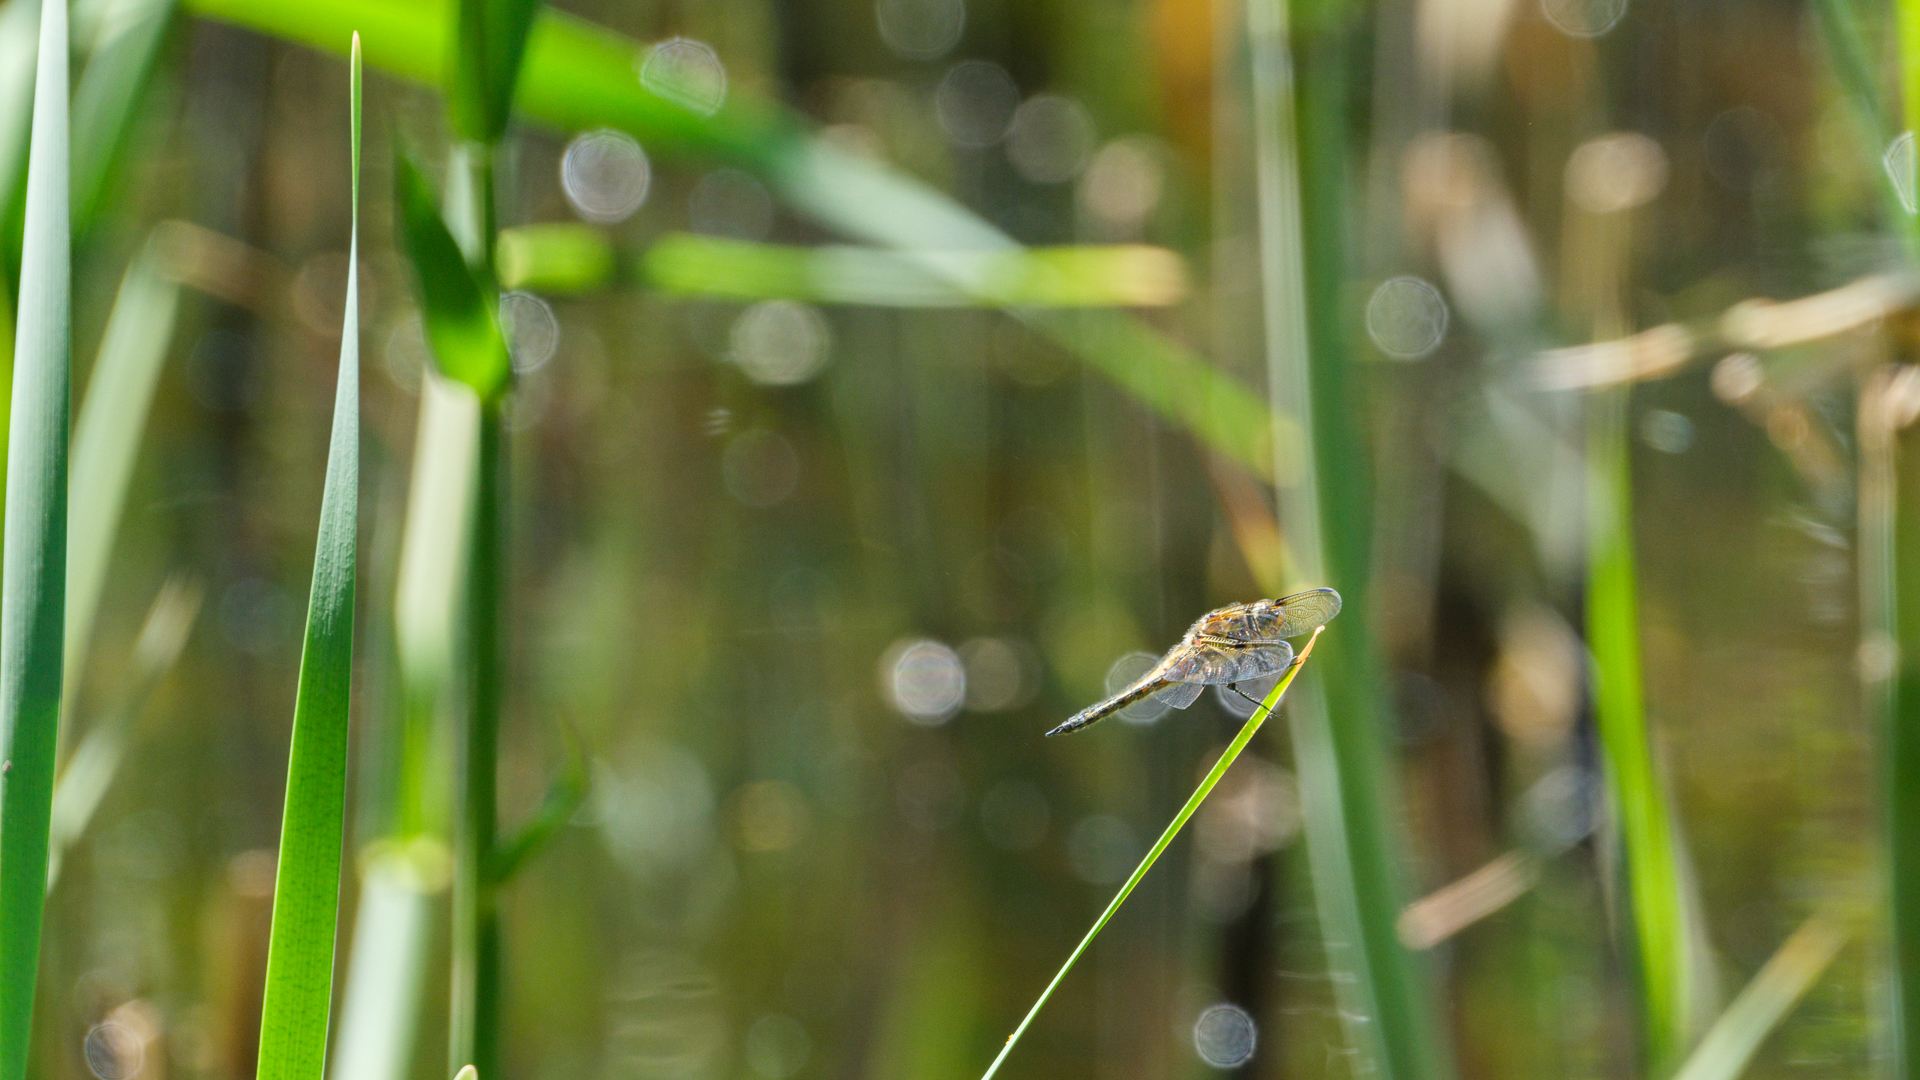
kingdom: Animalia
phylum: Arthropoda
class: Insecta
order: Odonata
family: Libellulidae
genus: Libellula
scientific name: Libellula quadrimaculata
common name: Four-spotted chaser
